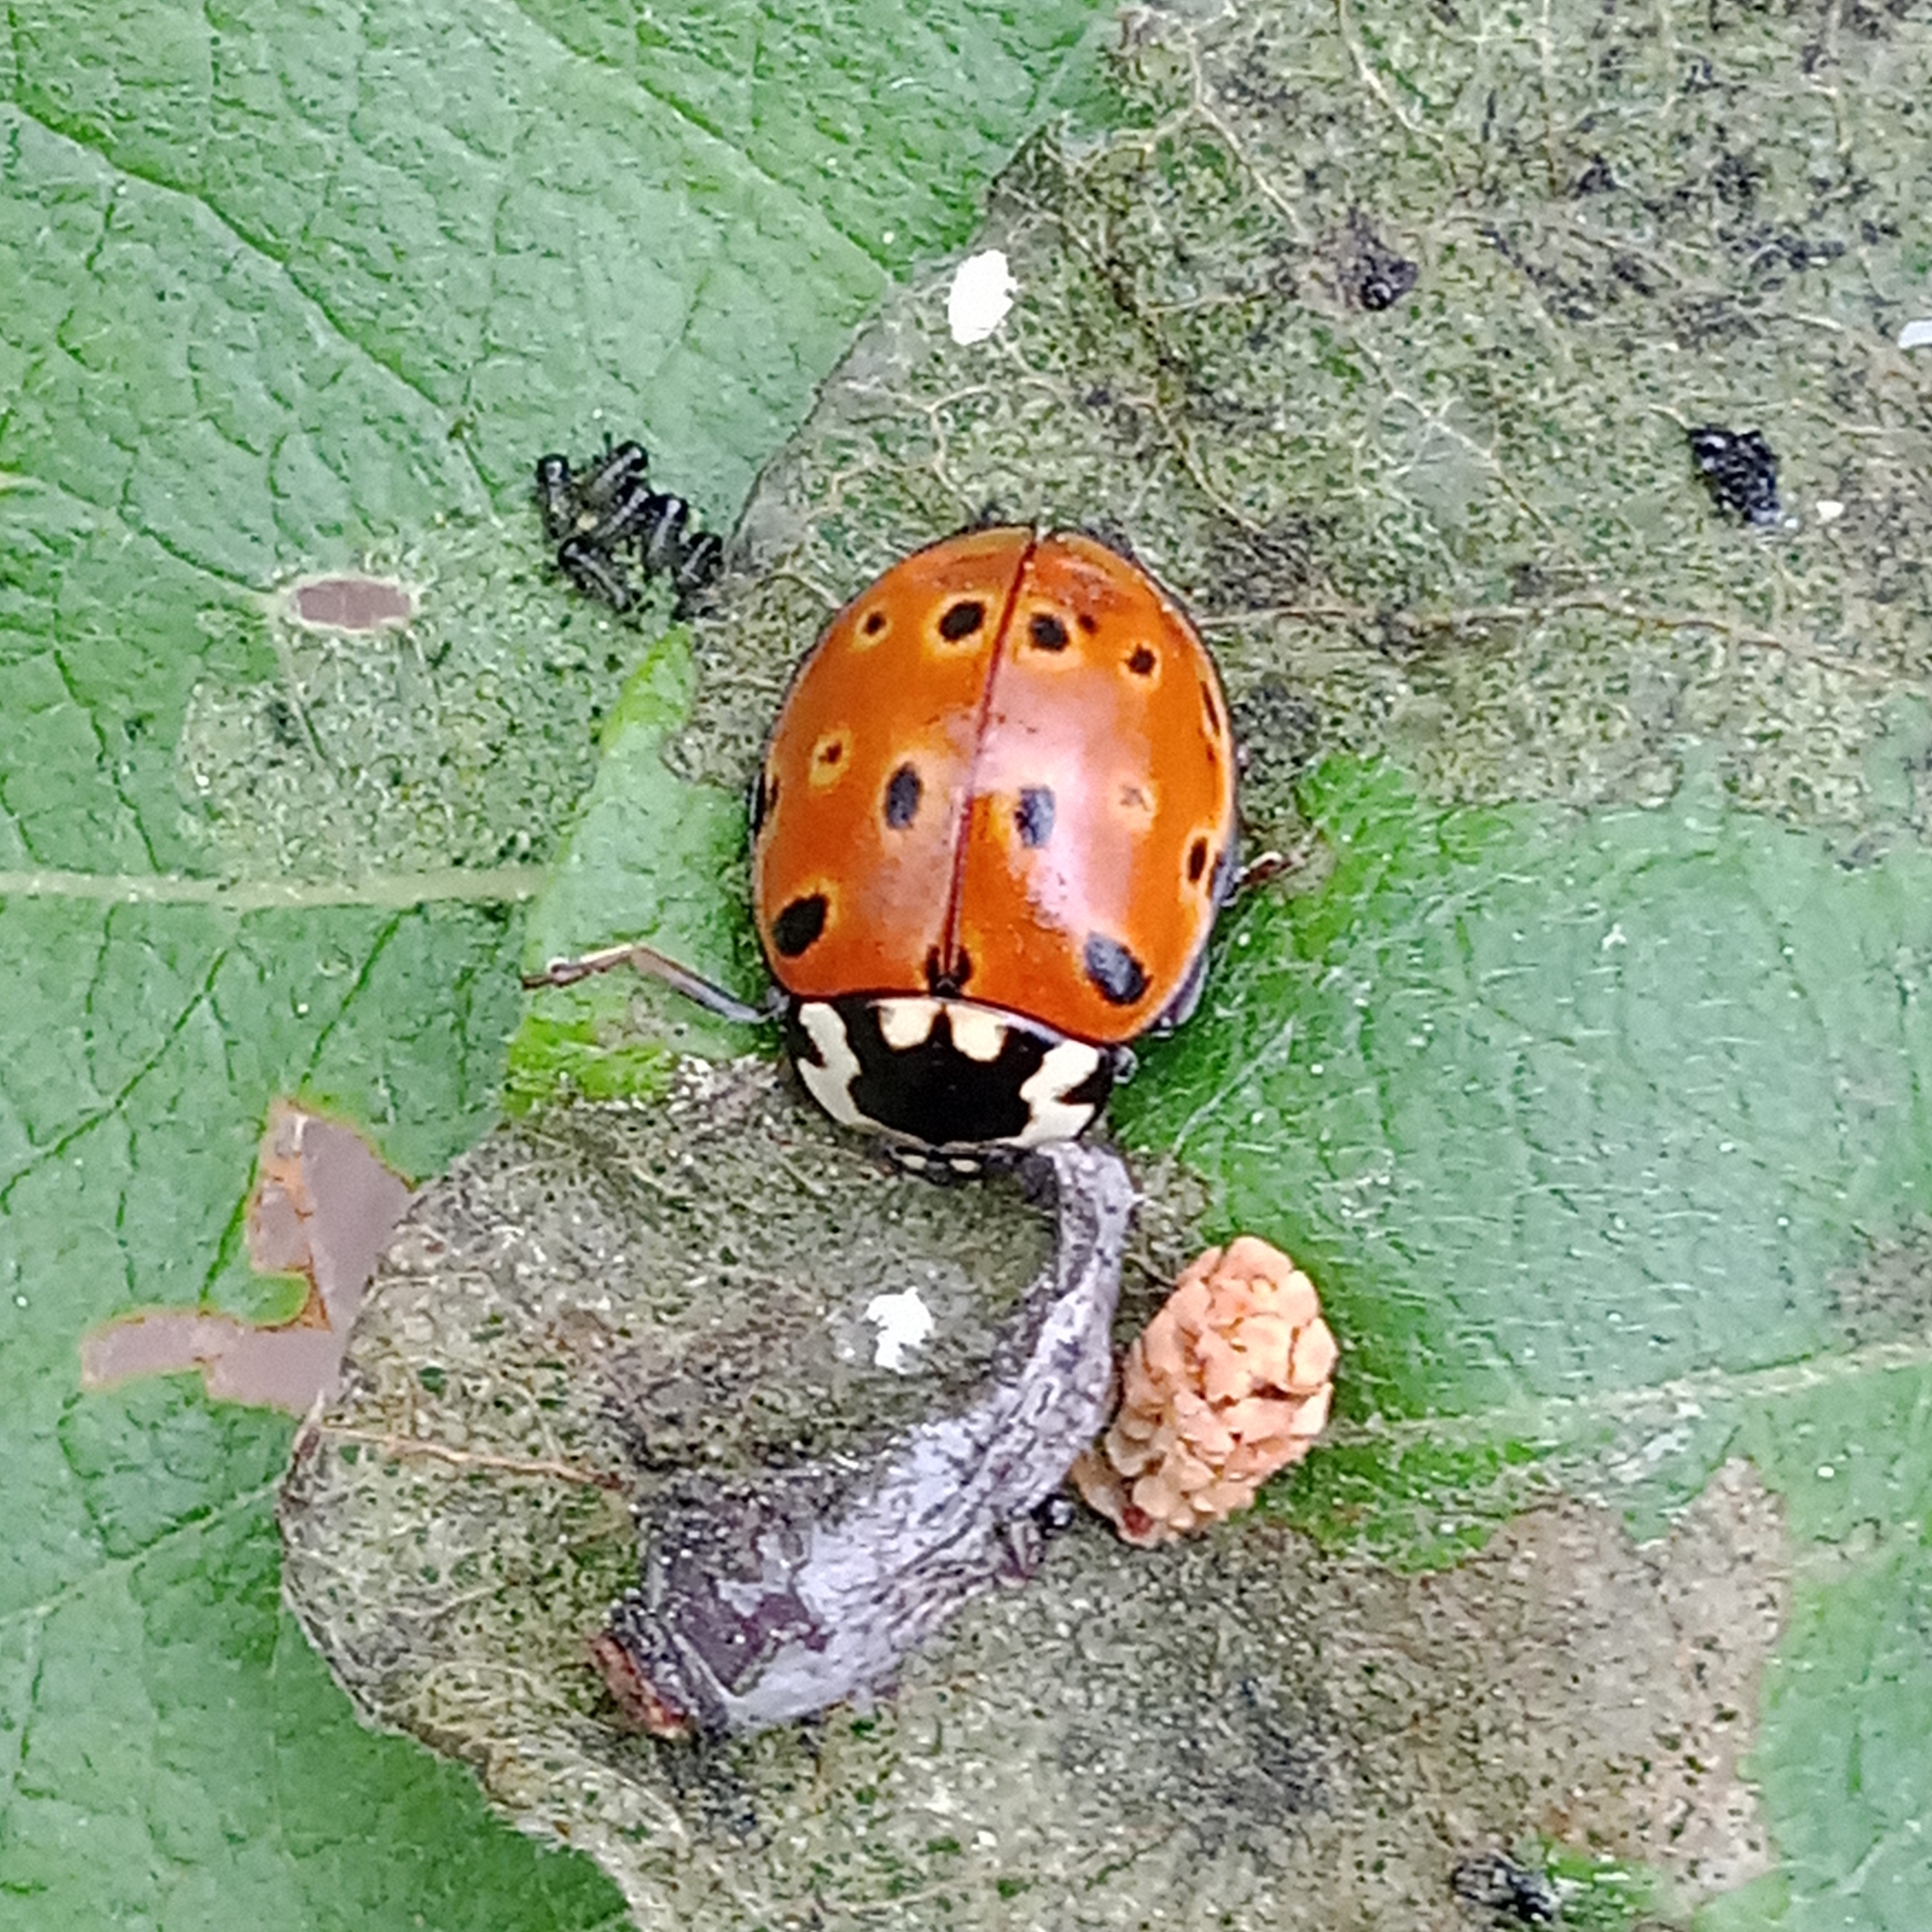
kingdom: Animalia
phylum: Arthropoda
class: Insecta
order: Coleoptera
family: Coccinellidae
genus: Anatis
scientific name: Anatis ocellata
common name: Eyed ladybird
